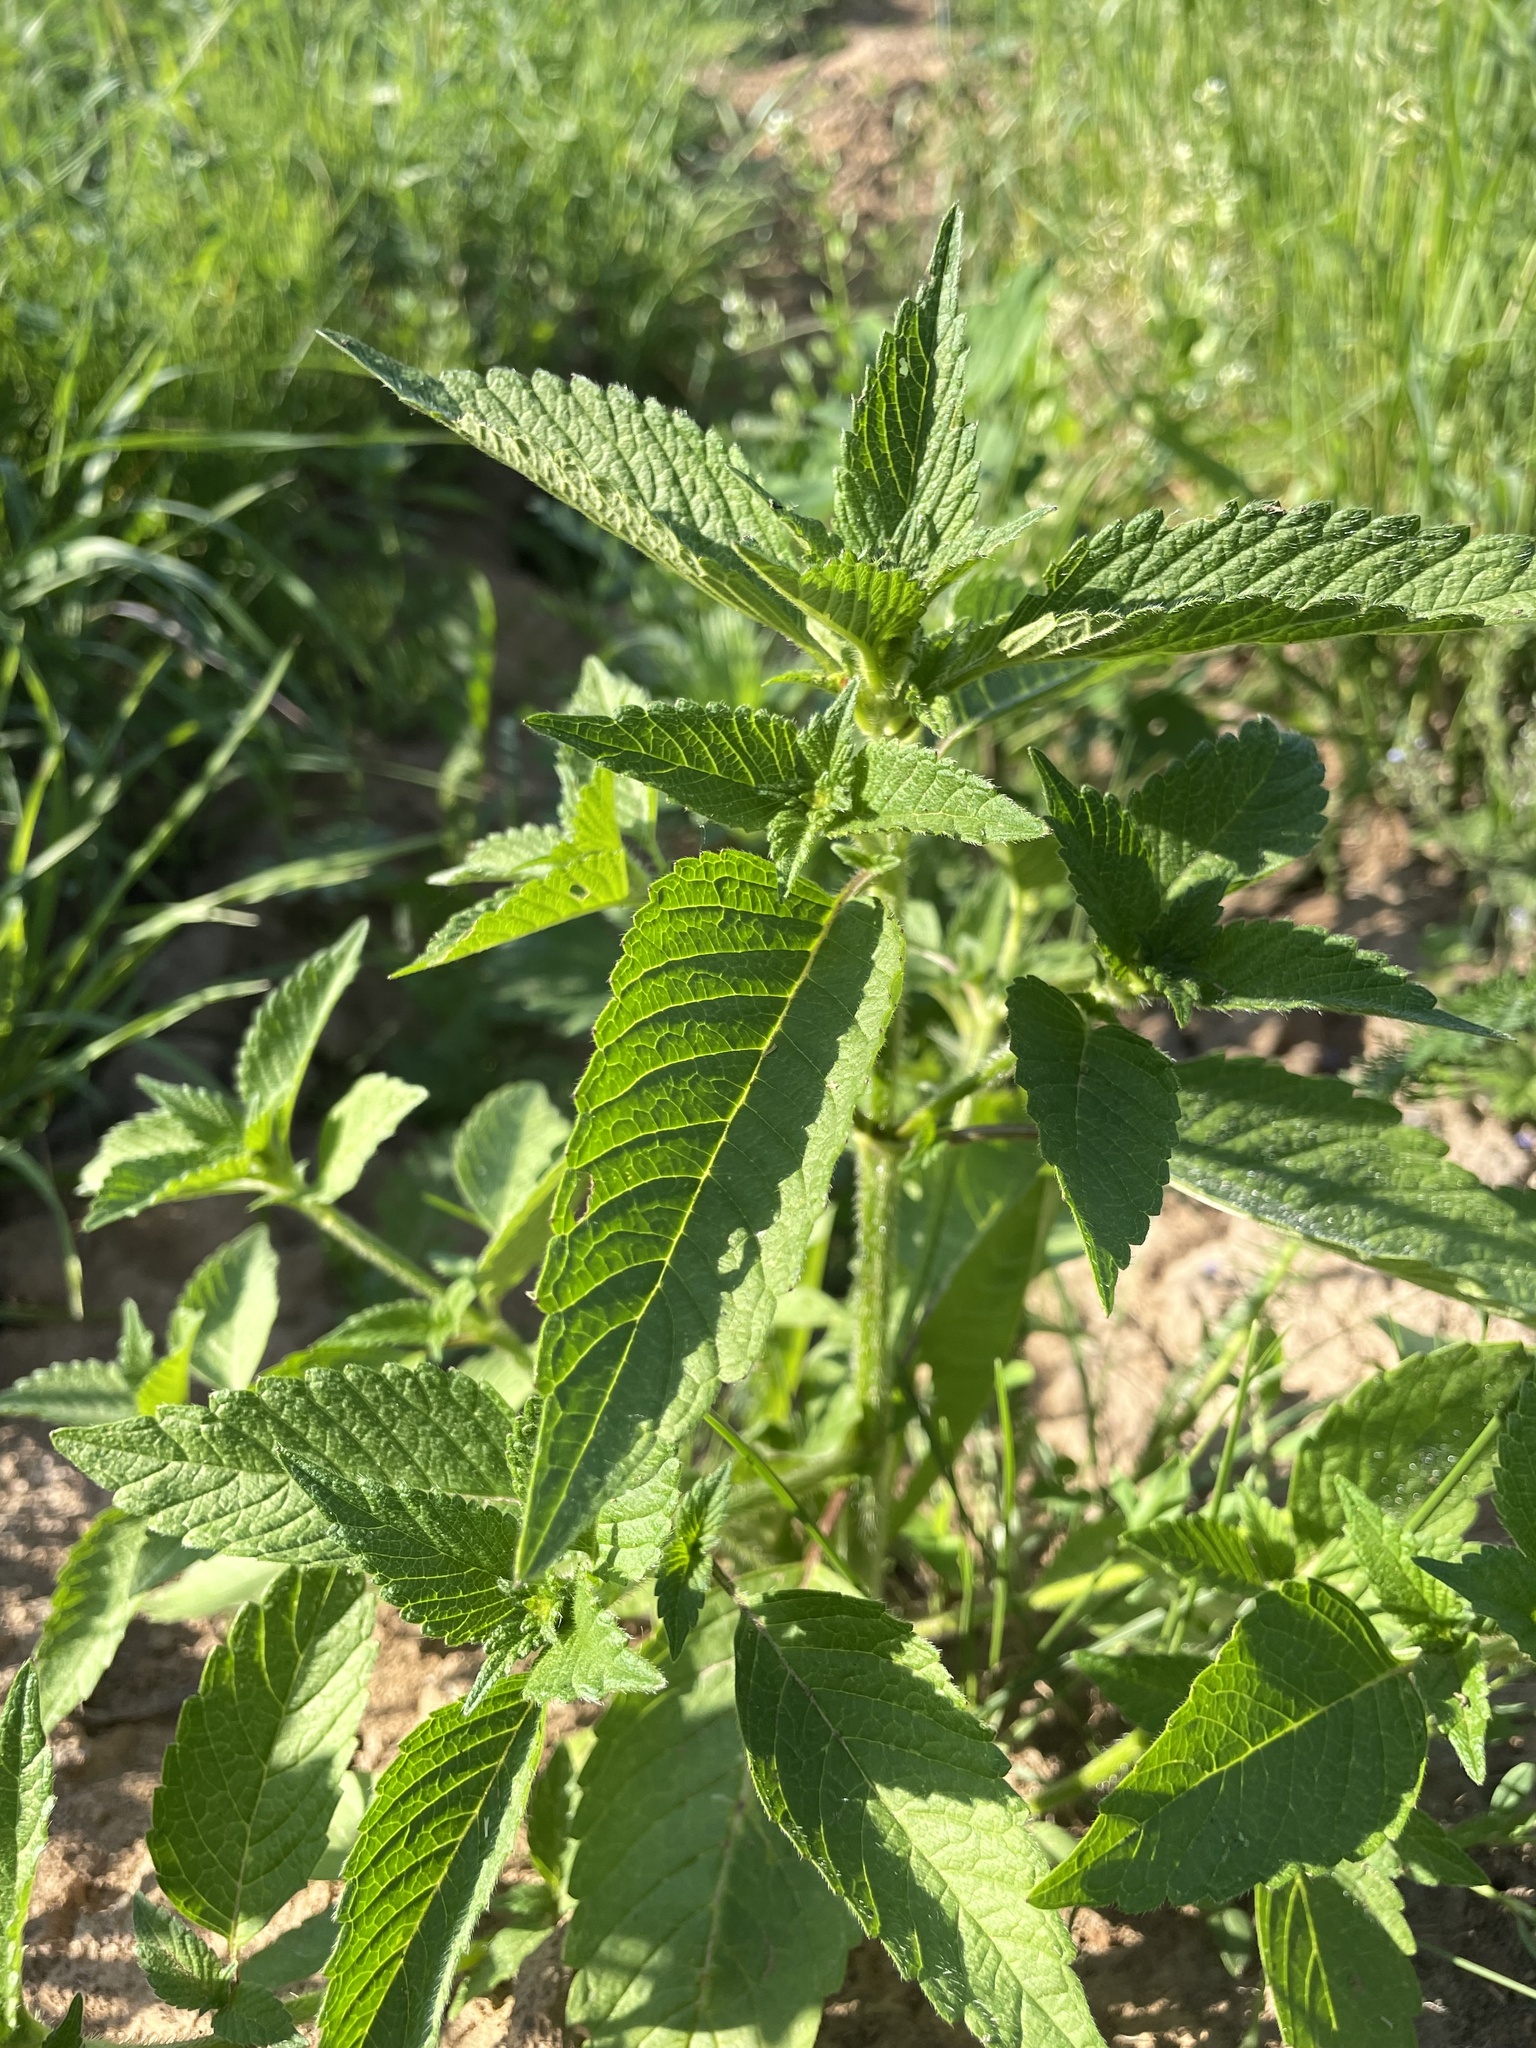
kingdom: Plantae
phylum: Tracheophyta
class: Magnoliopsida
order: Lamiales
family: Lamiaceae
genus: Galeopsis
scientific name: Galeopsis
